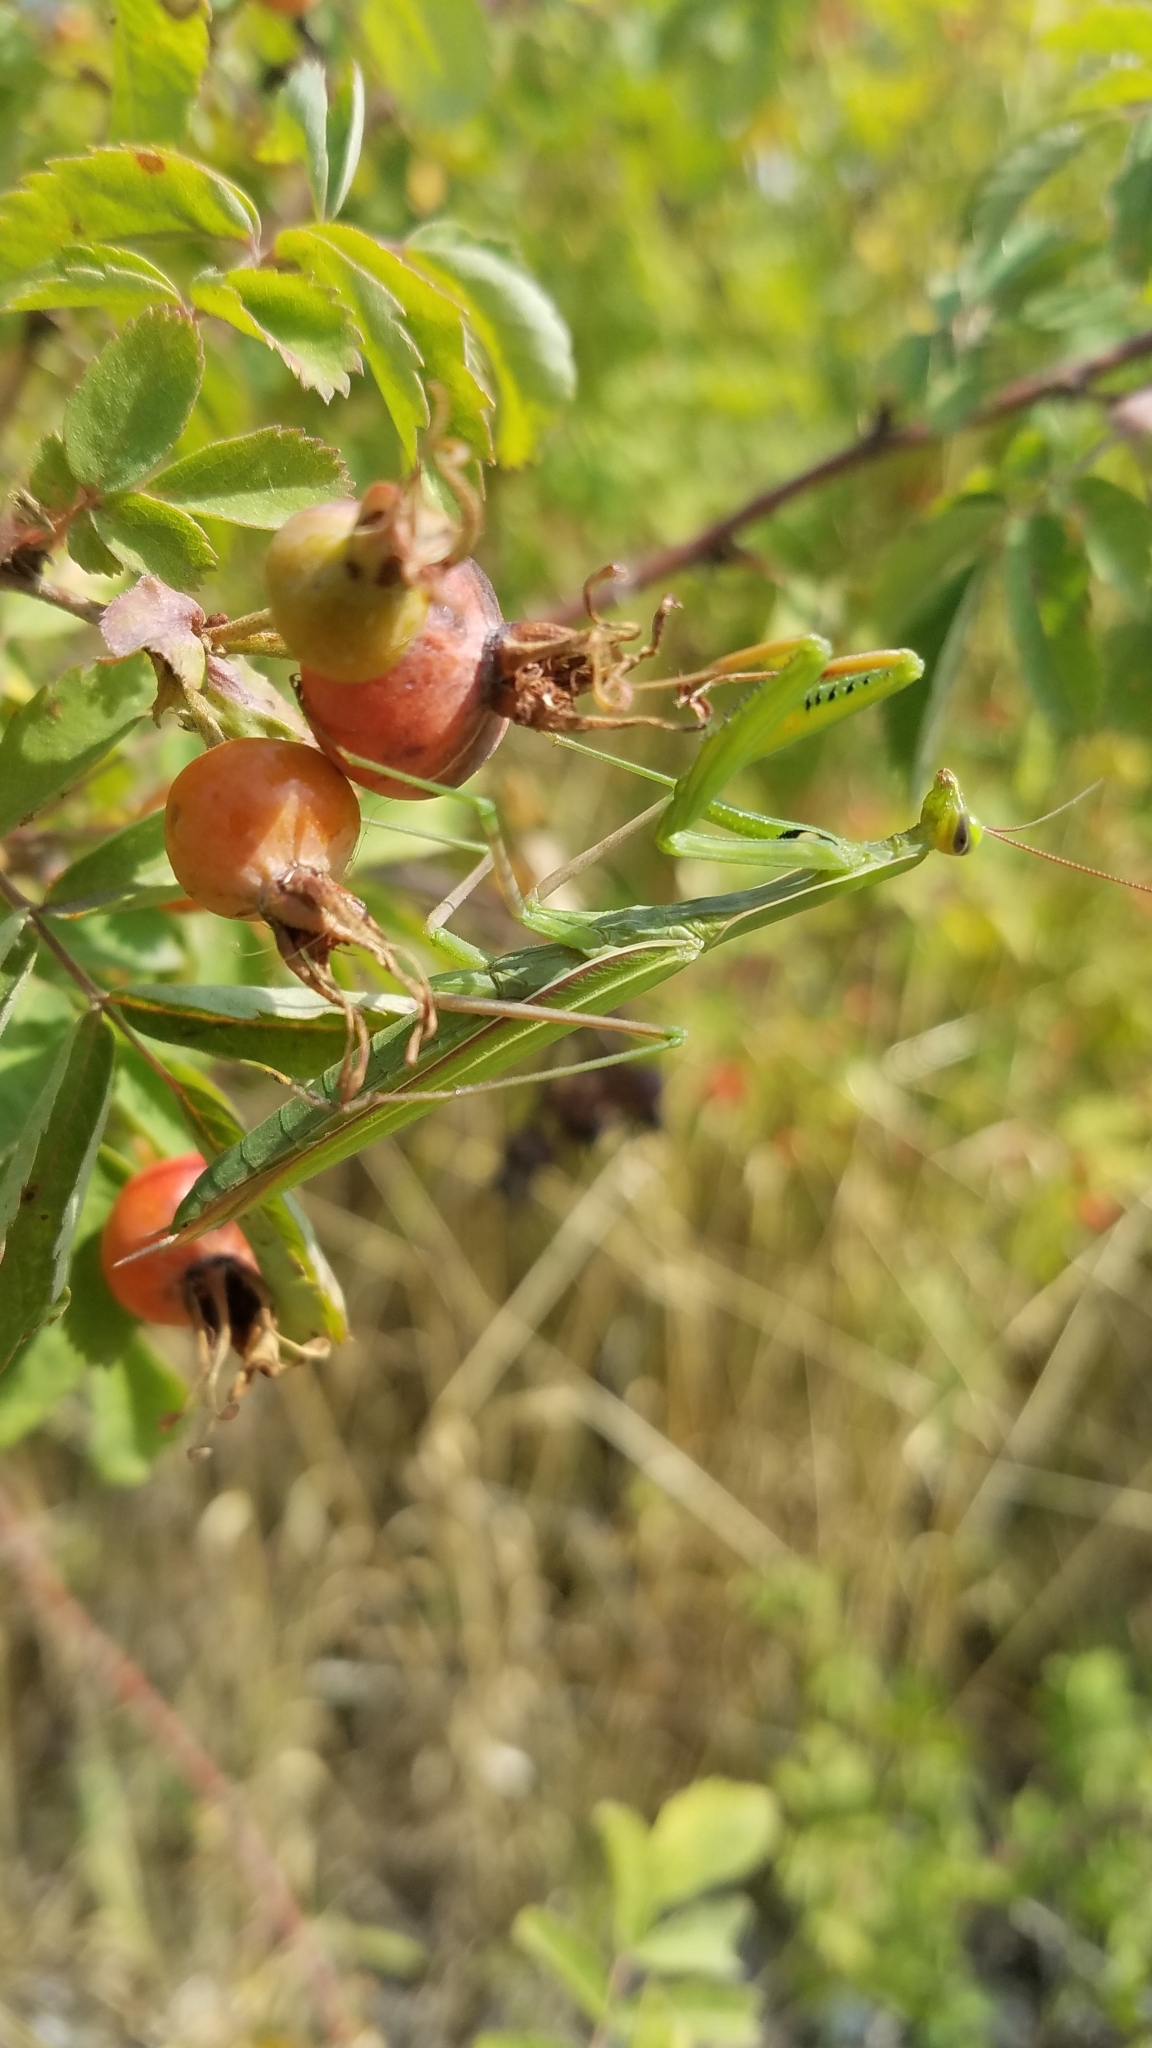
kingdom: Animalia
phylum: Arthropoda
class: Insecta
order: Mantodea
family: Mantidae
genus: Mantis
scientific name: Mantis religiosa
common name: Praying mantis
